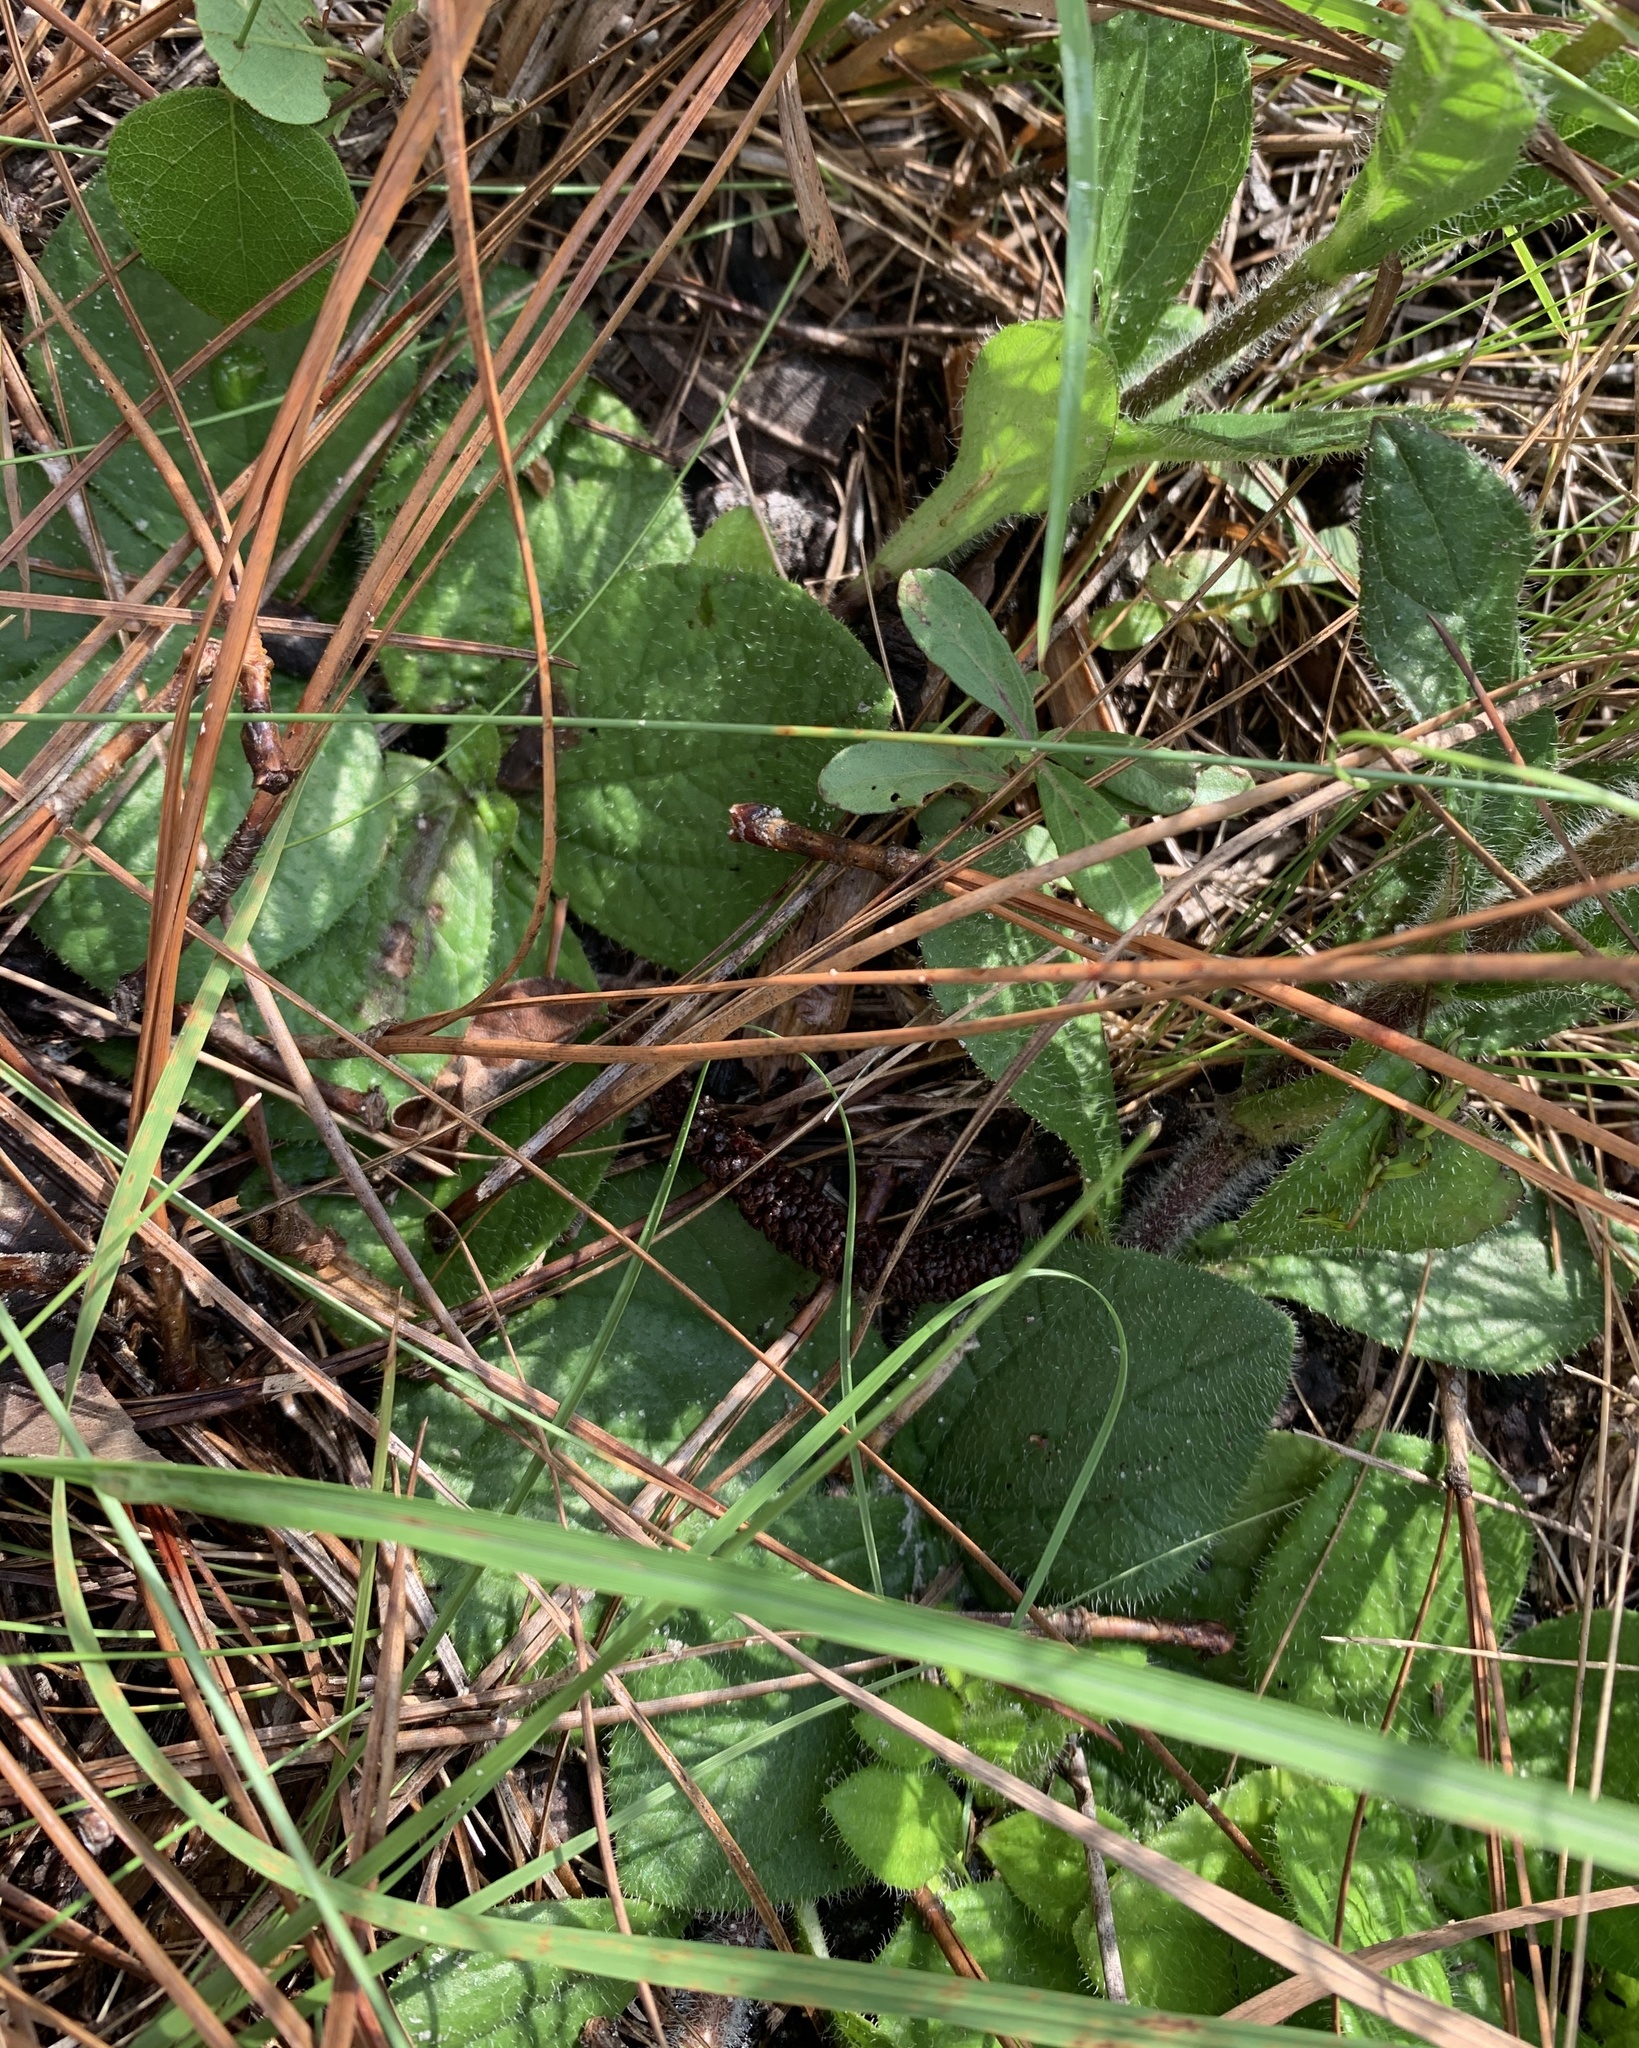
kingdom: Plantae
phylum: Tracheophyta
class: Magnoliopsida
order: Asterales
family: Asteraceae
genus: Helianthus
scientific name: Helianthus radula
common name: Pineland sunflower
